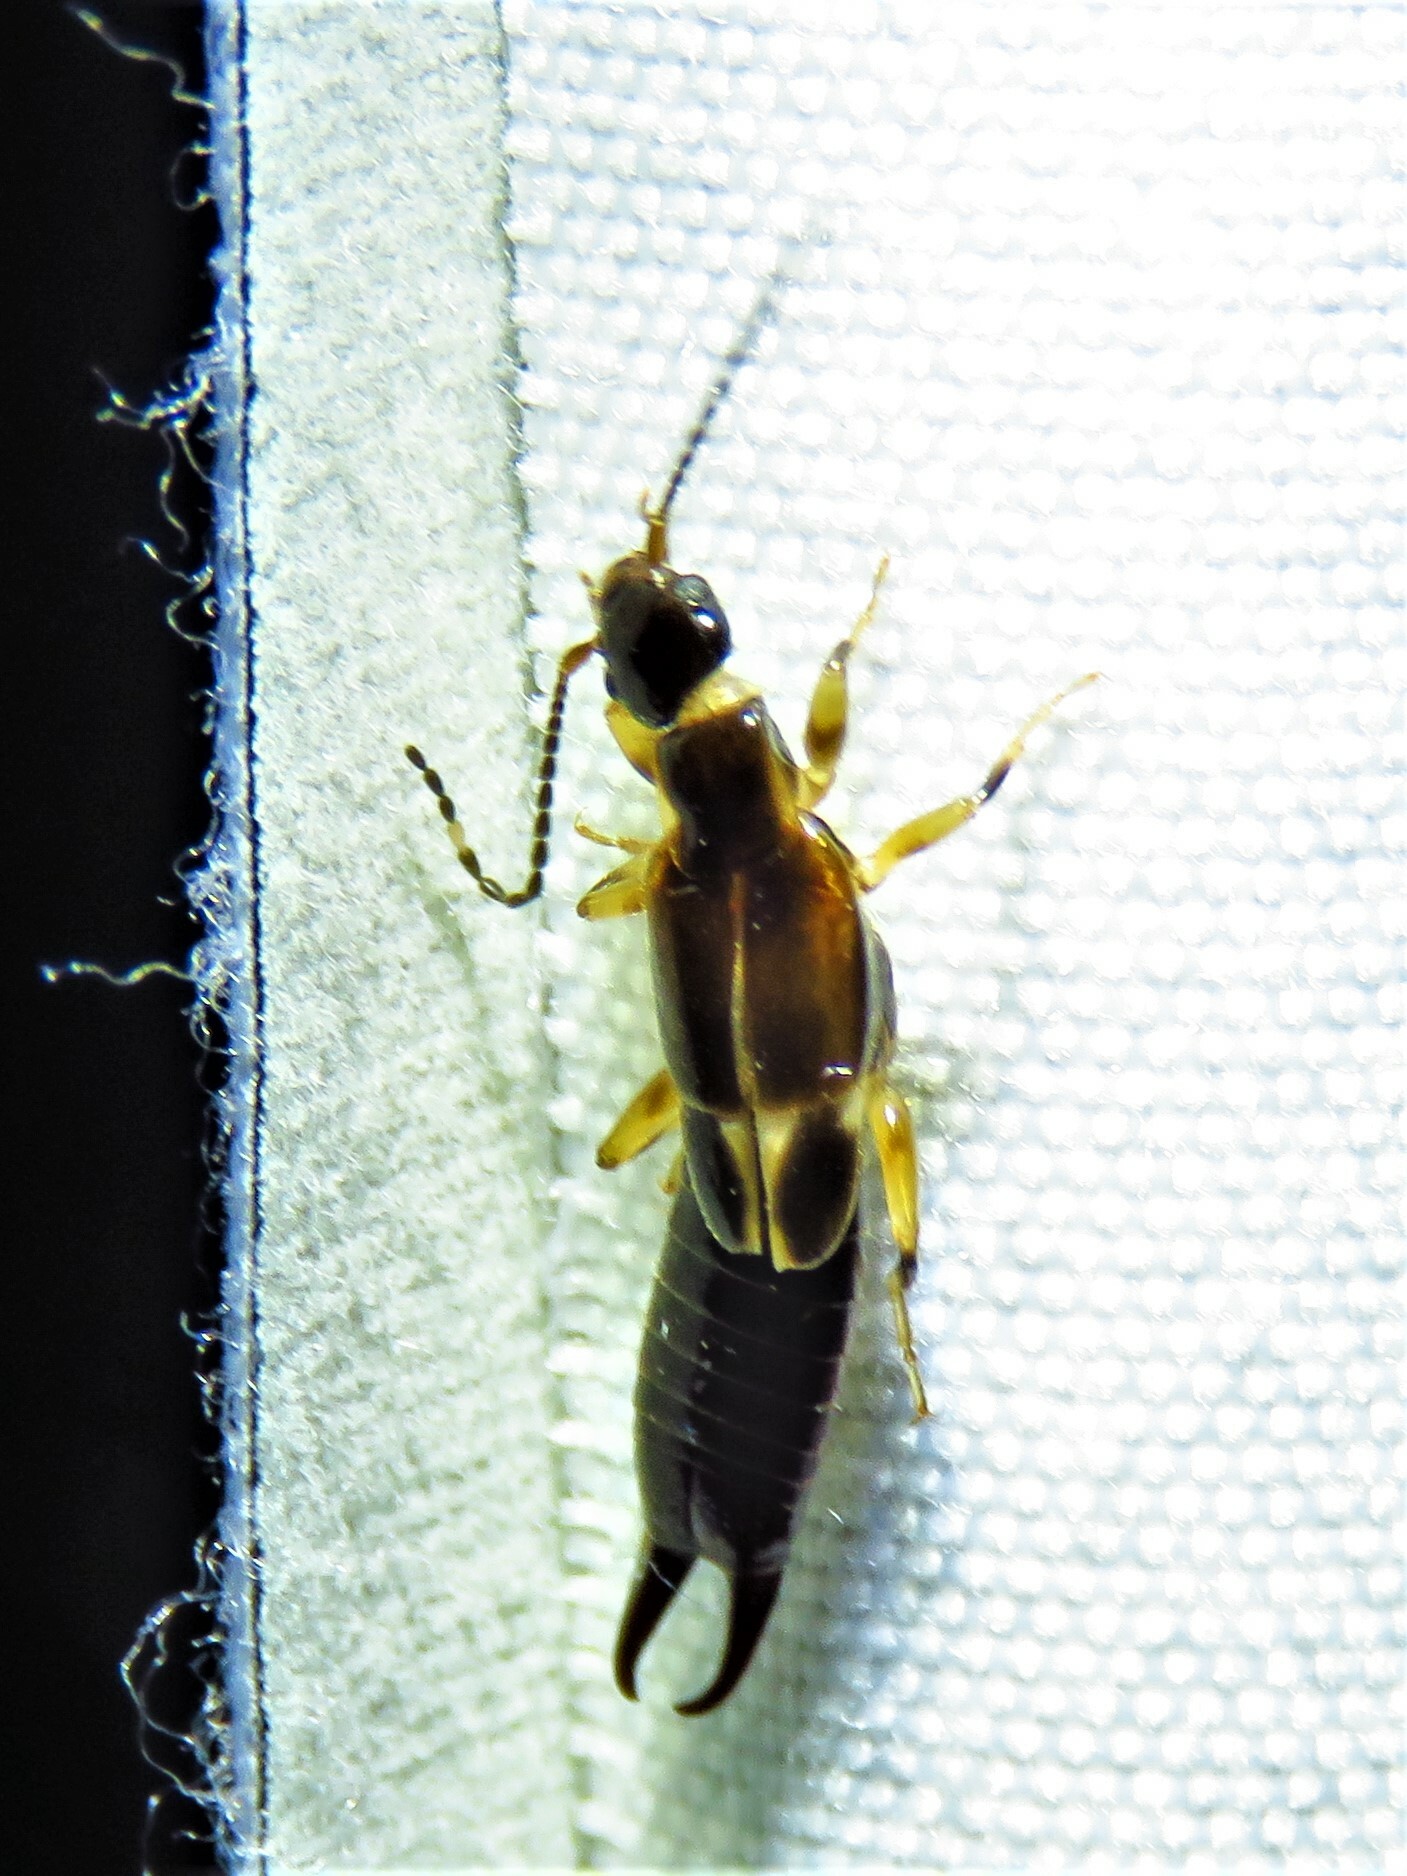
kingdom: Animalia
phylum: Arthropoda
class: Insecta
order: Dermaptera
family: Anisolabididae
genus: Euborellia
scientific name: Euborellia cincticollis
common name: African earwig
